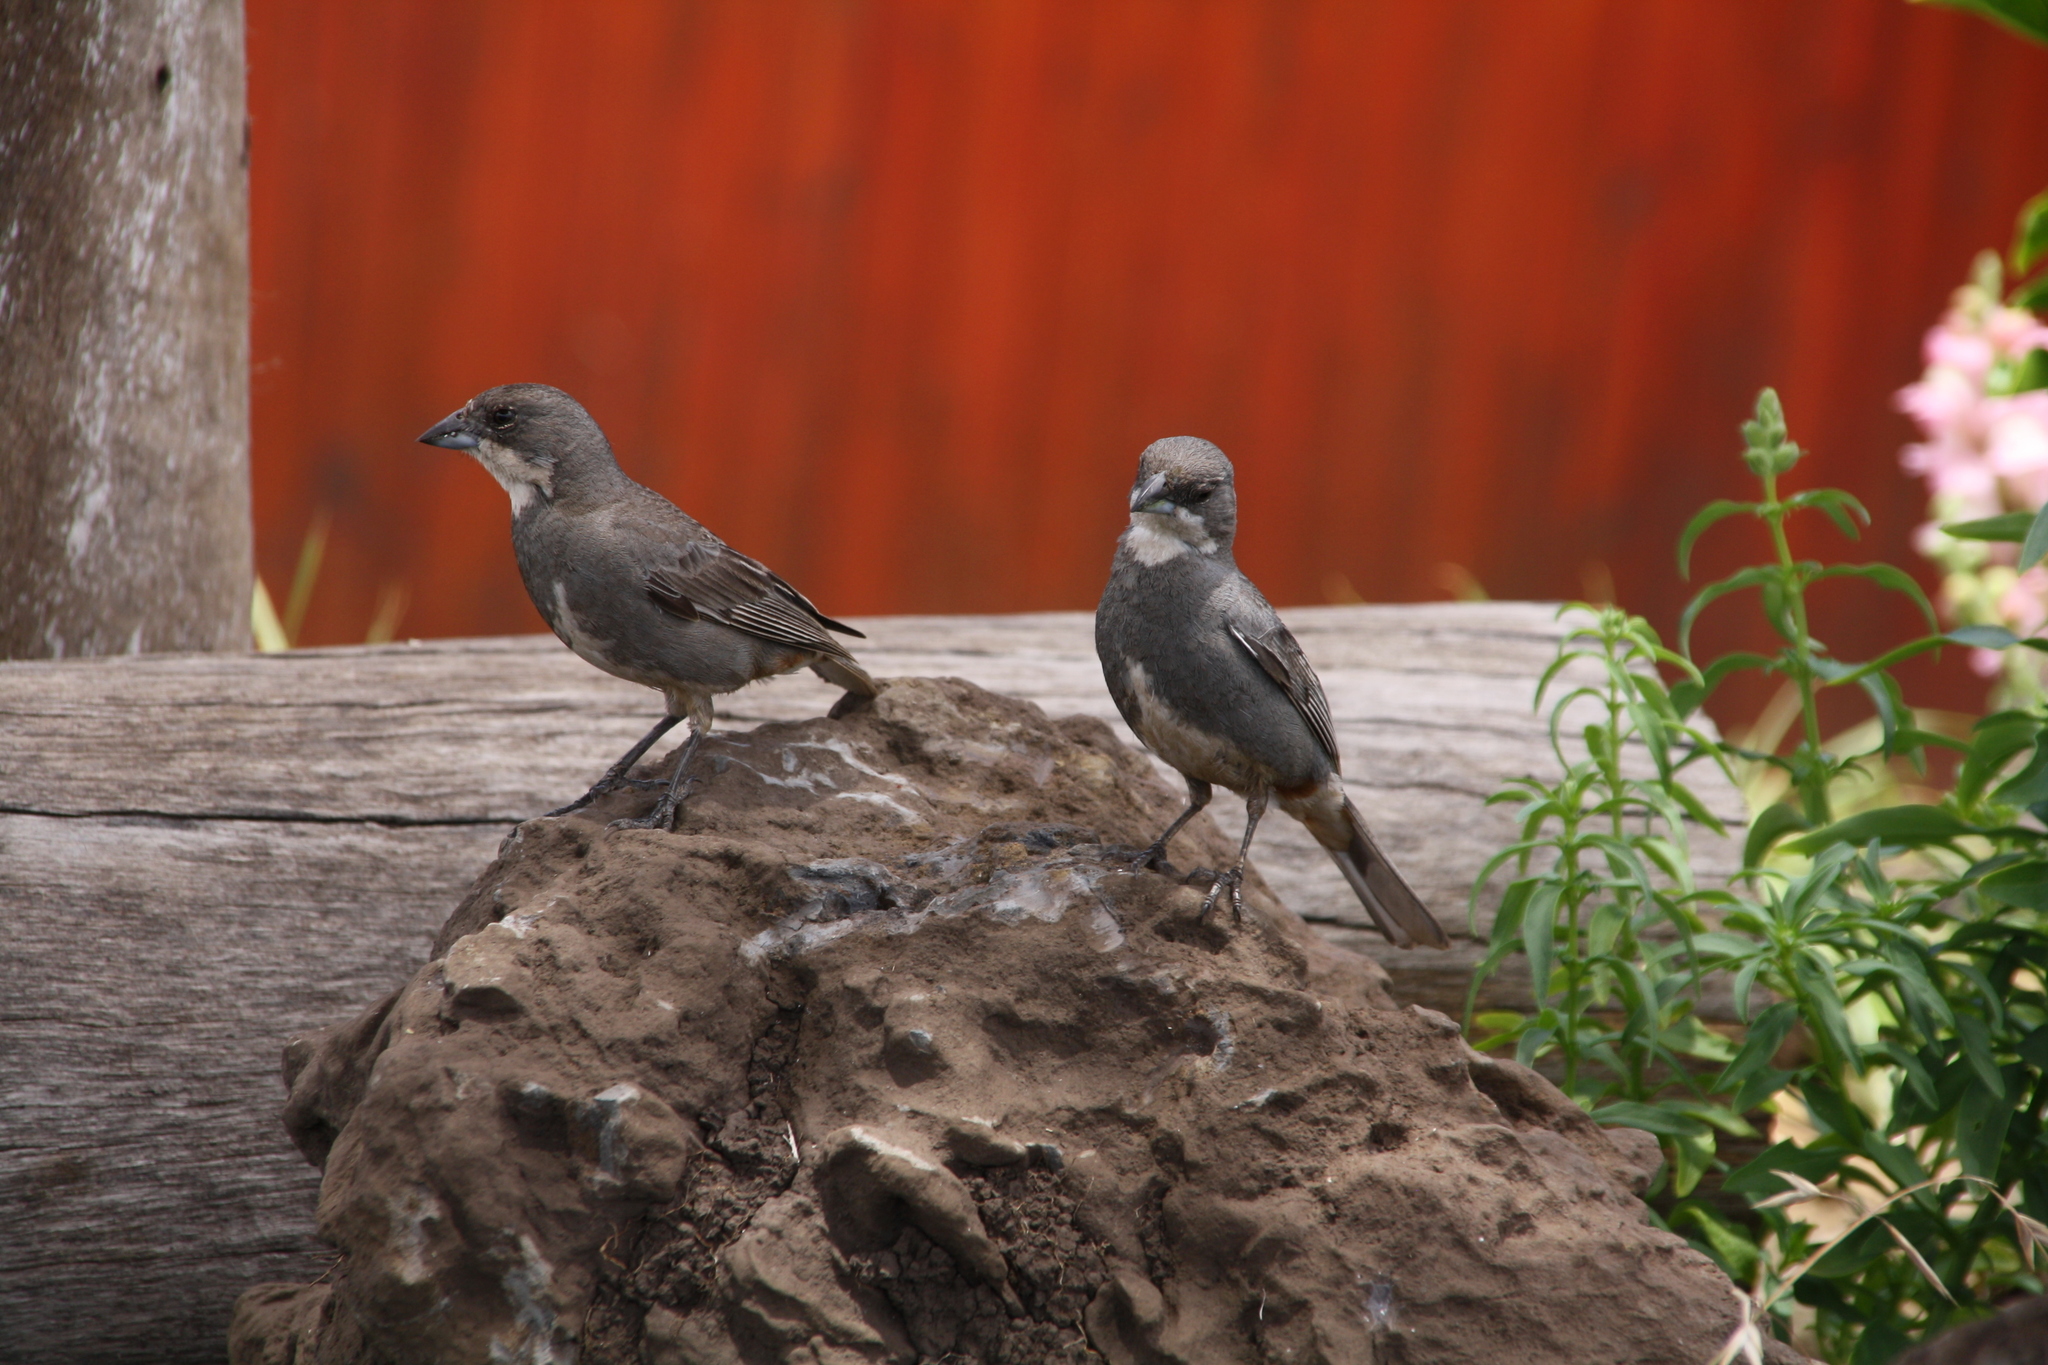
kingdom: Animalia
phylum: Chordata
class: Aves
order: Passeriformes
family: Thraupidae
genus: Diuca
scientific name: Diuca diuca
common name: Common diuca finch
